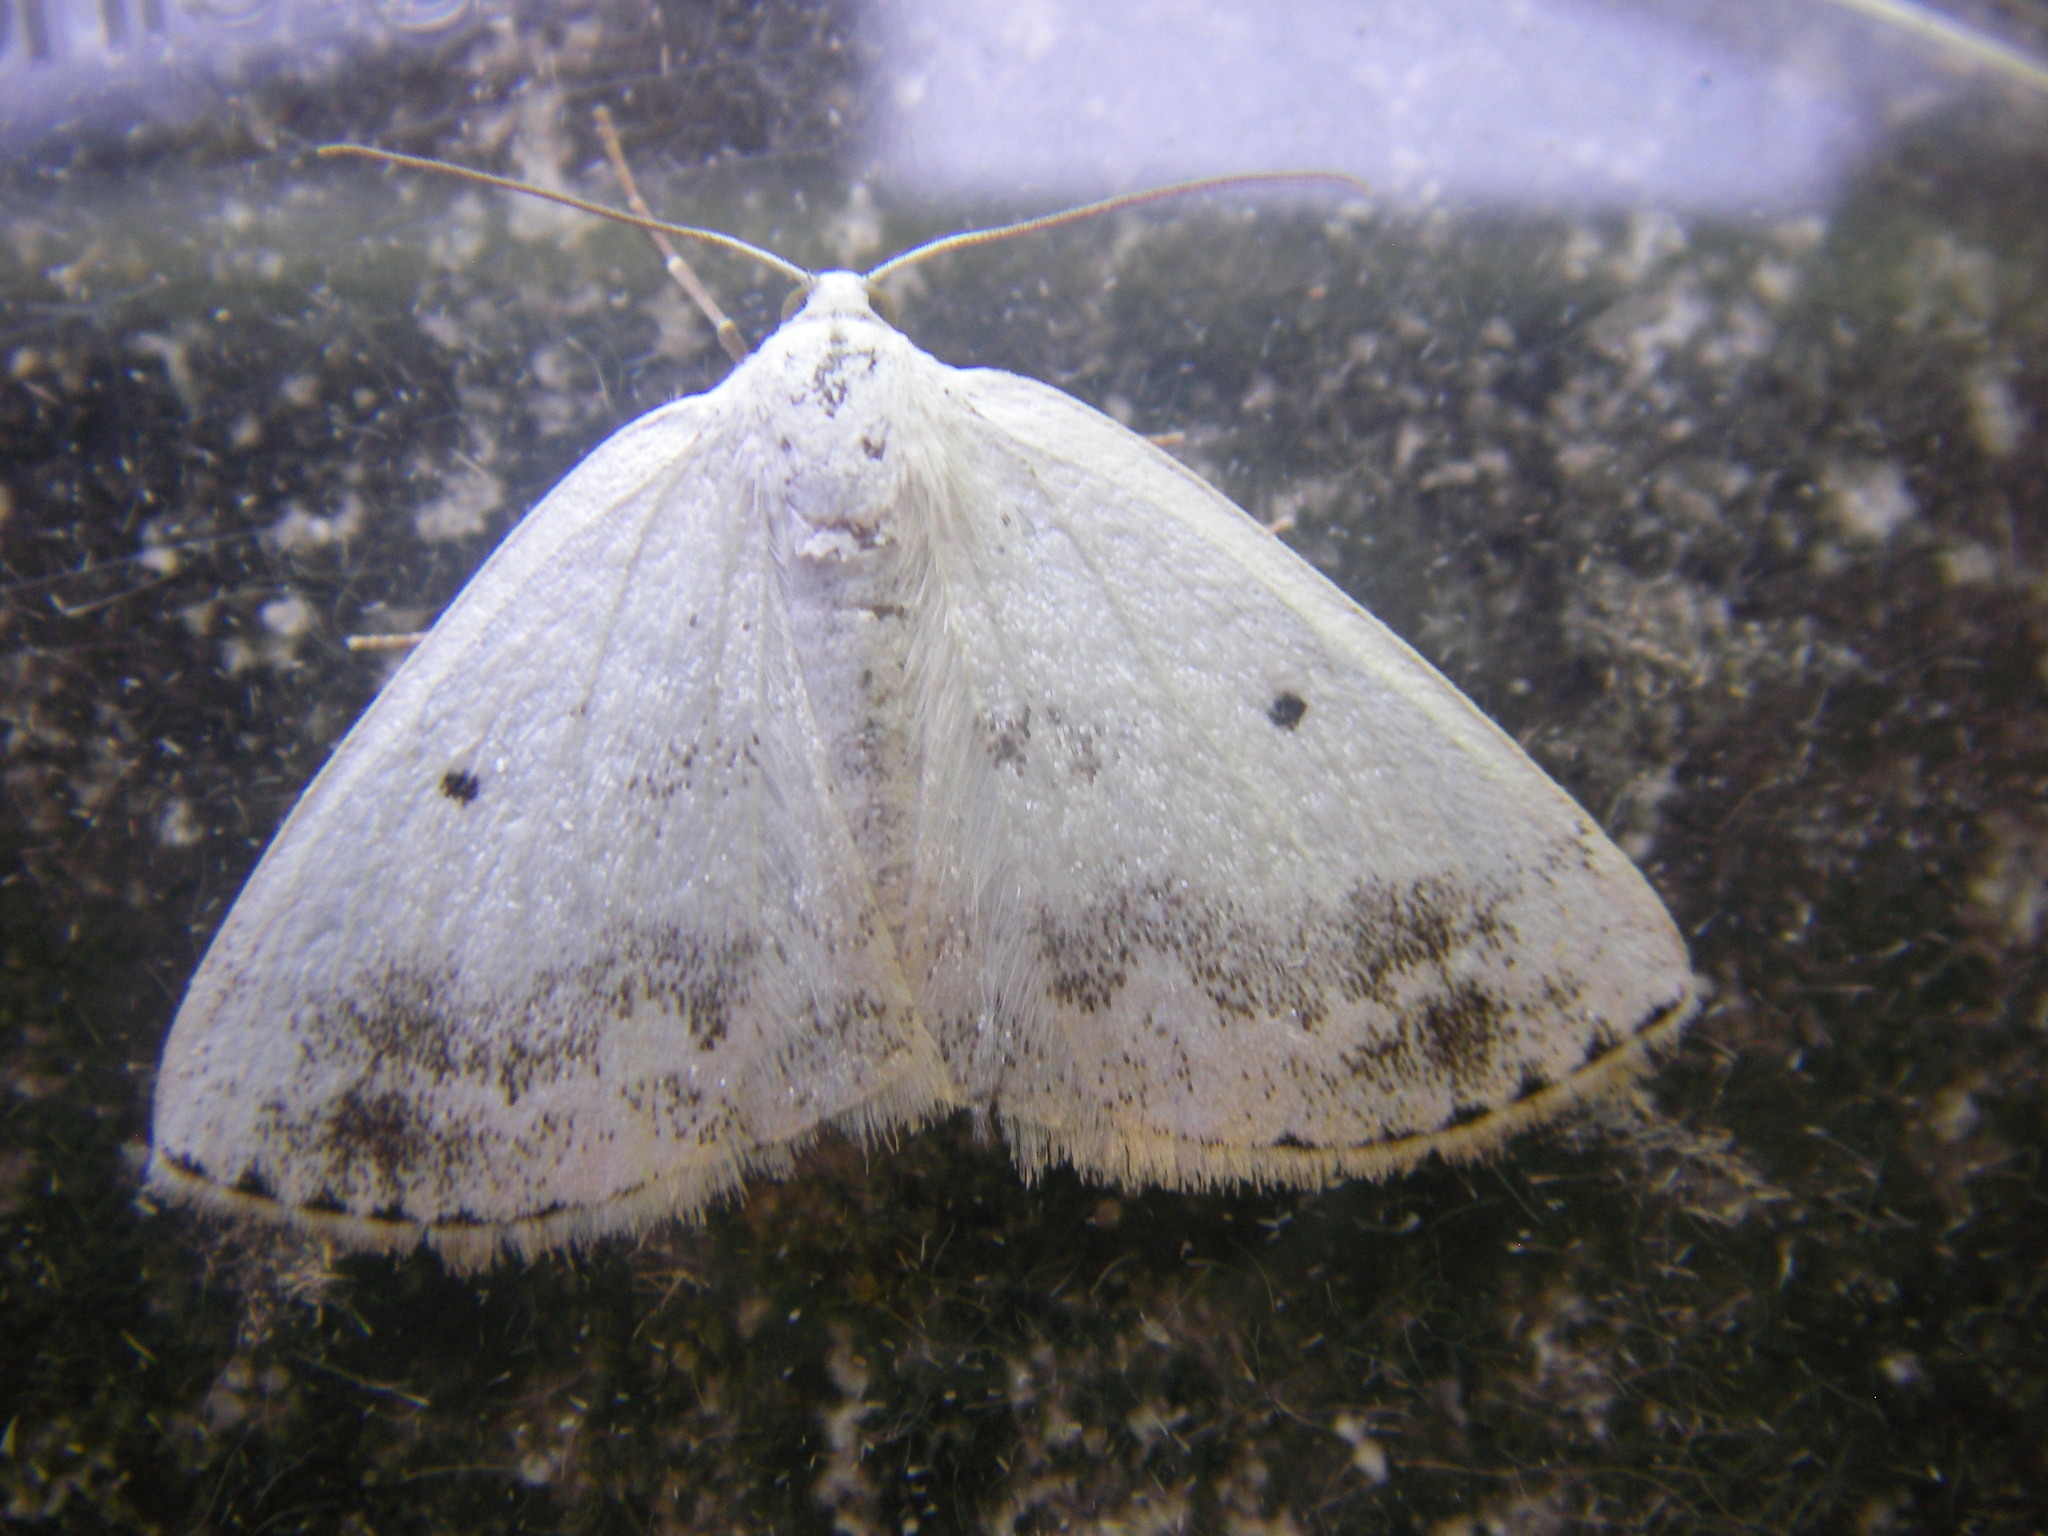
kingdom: Animalia
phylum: Arthropoda
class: Insecta
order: Lepidoptera
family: Geometridae
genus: Lomographa
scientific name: Lomographa temerata
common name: Clouded silver
